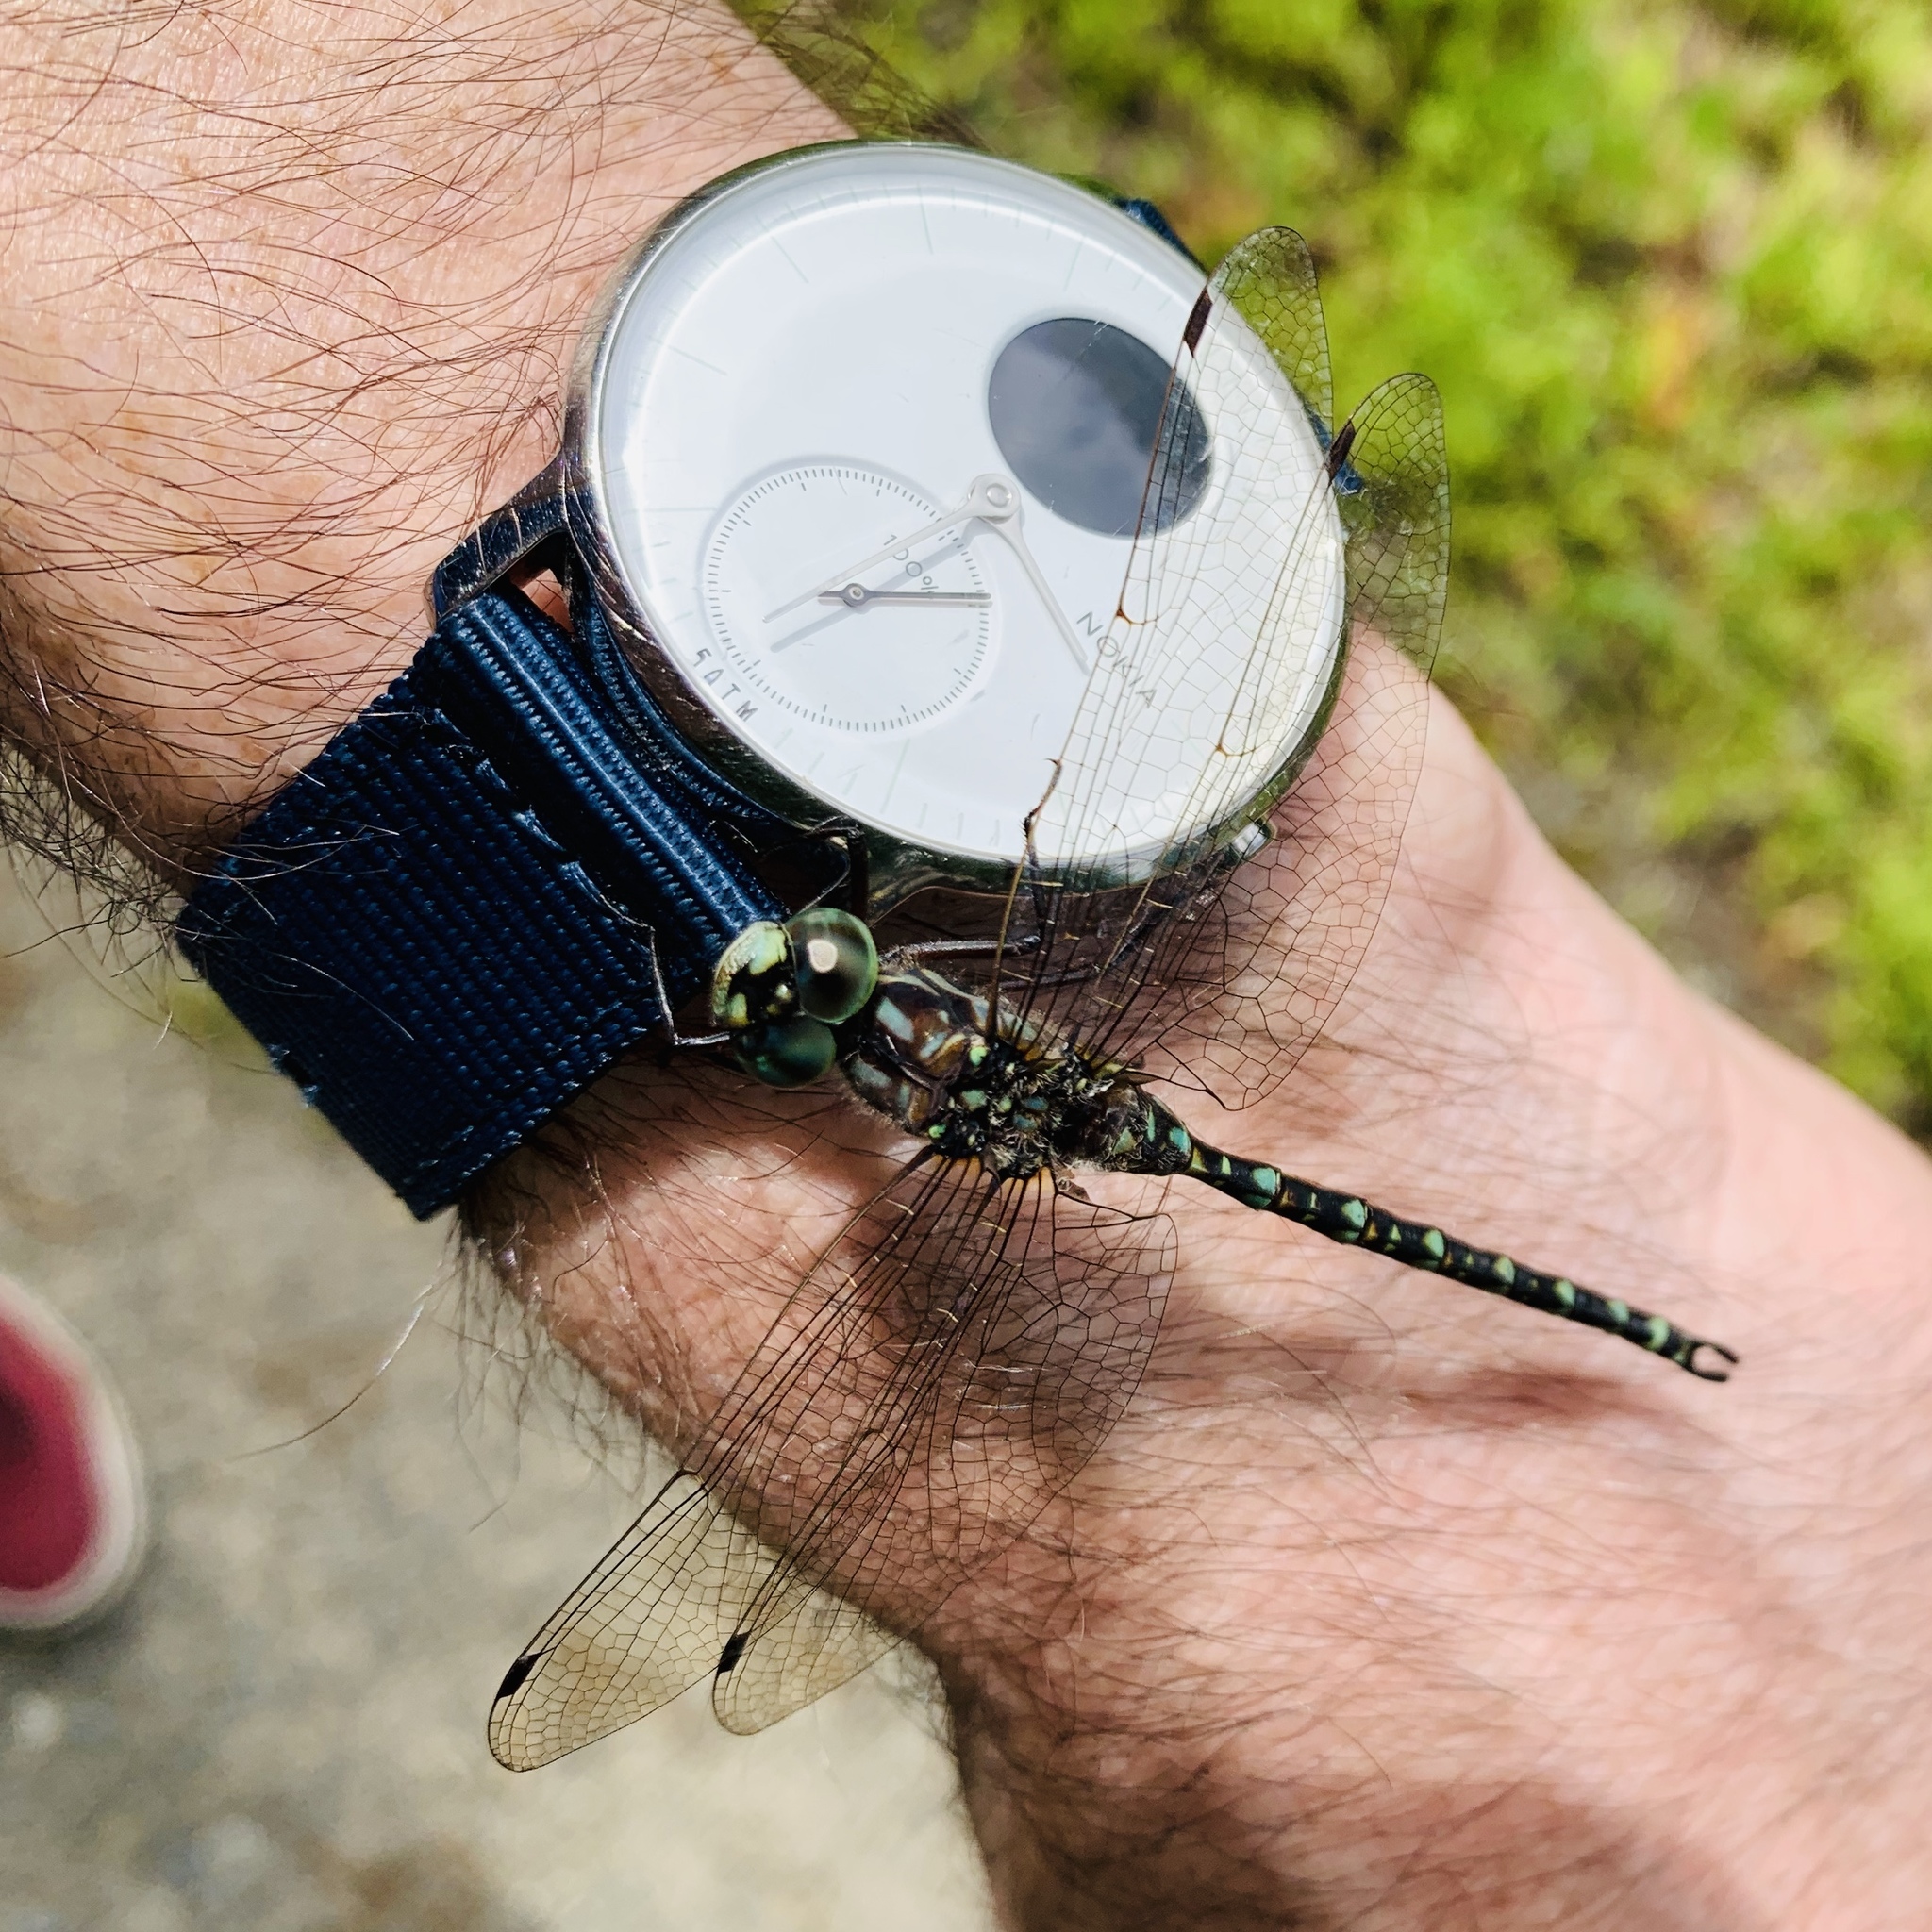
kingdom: Animalia
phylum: Arthropoda
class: Insecta
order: Odonata
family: Aeshnidae
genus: Gomphaeschna
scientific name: Gomphaeschna furcillata
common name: Harlequin darner
